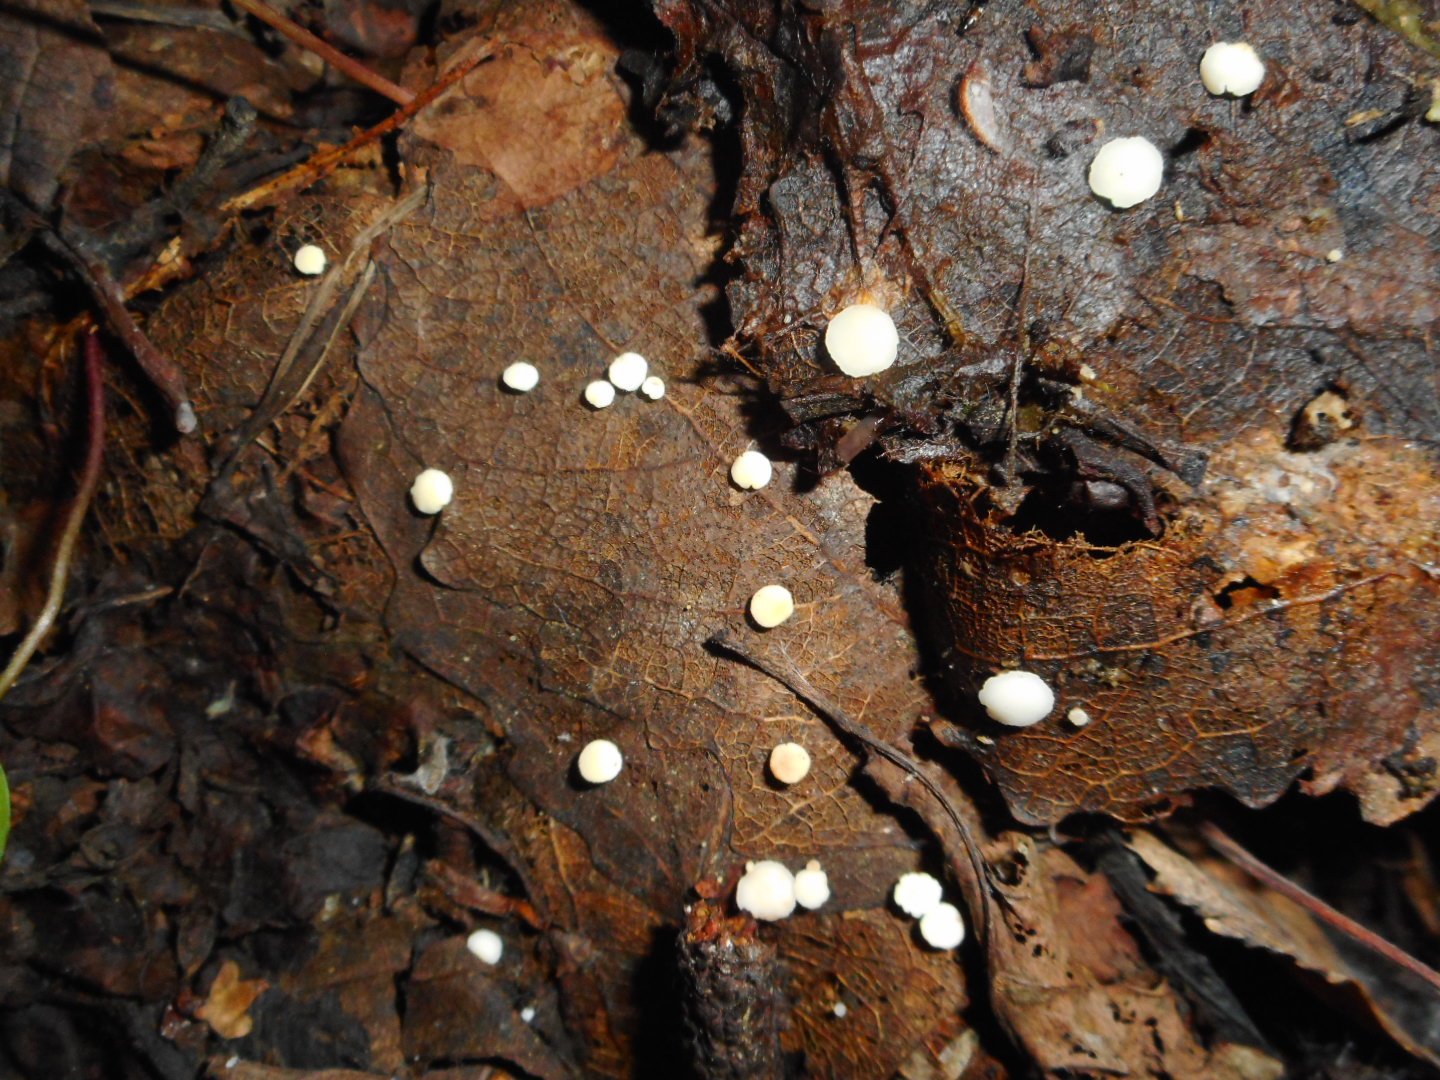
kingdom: Fungi
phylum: Ascomycota
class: Leotiomycetes
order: Helotiales
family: Helotiaceae
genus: Hymenoscyphus
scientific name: Hymenoscyphus immutabilis
